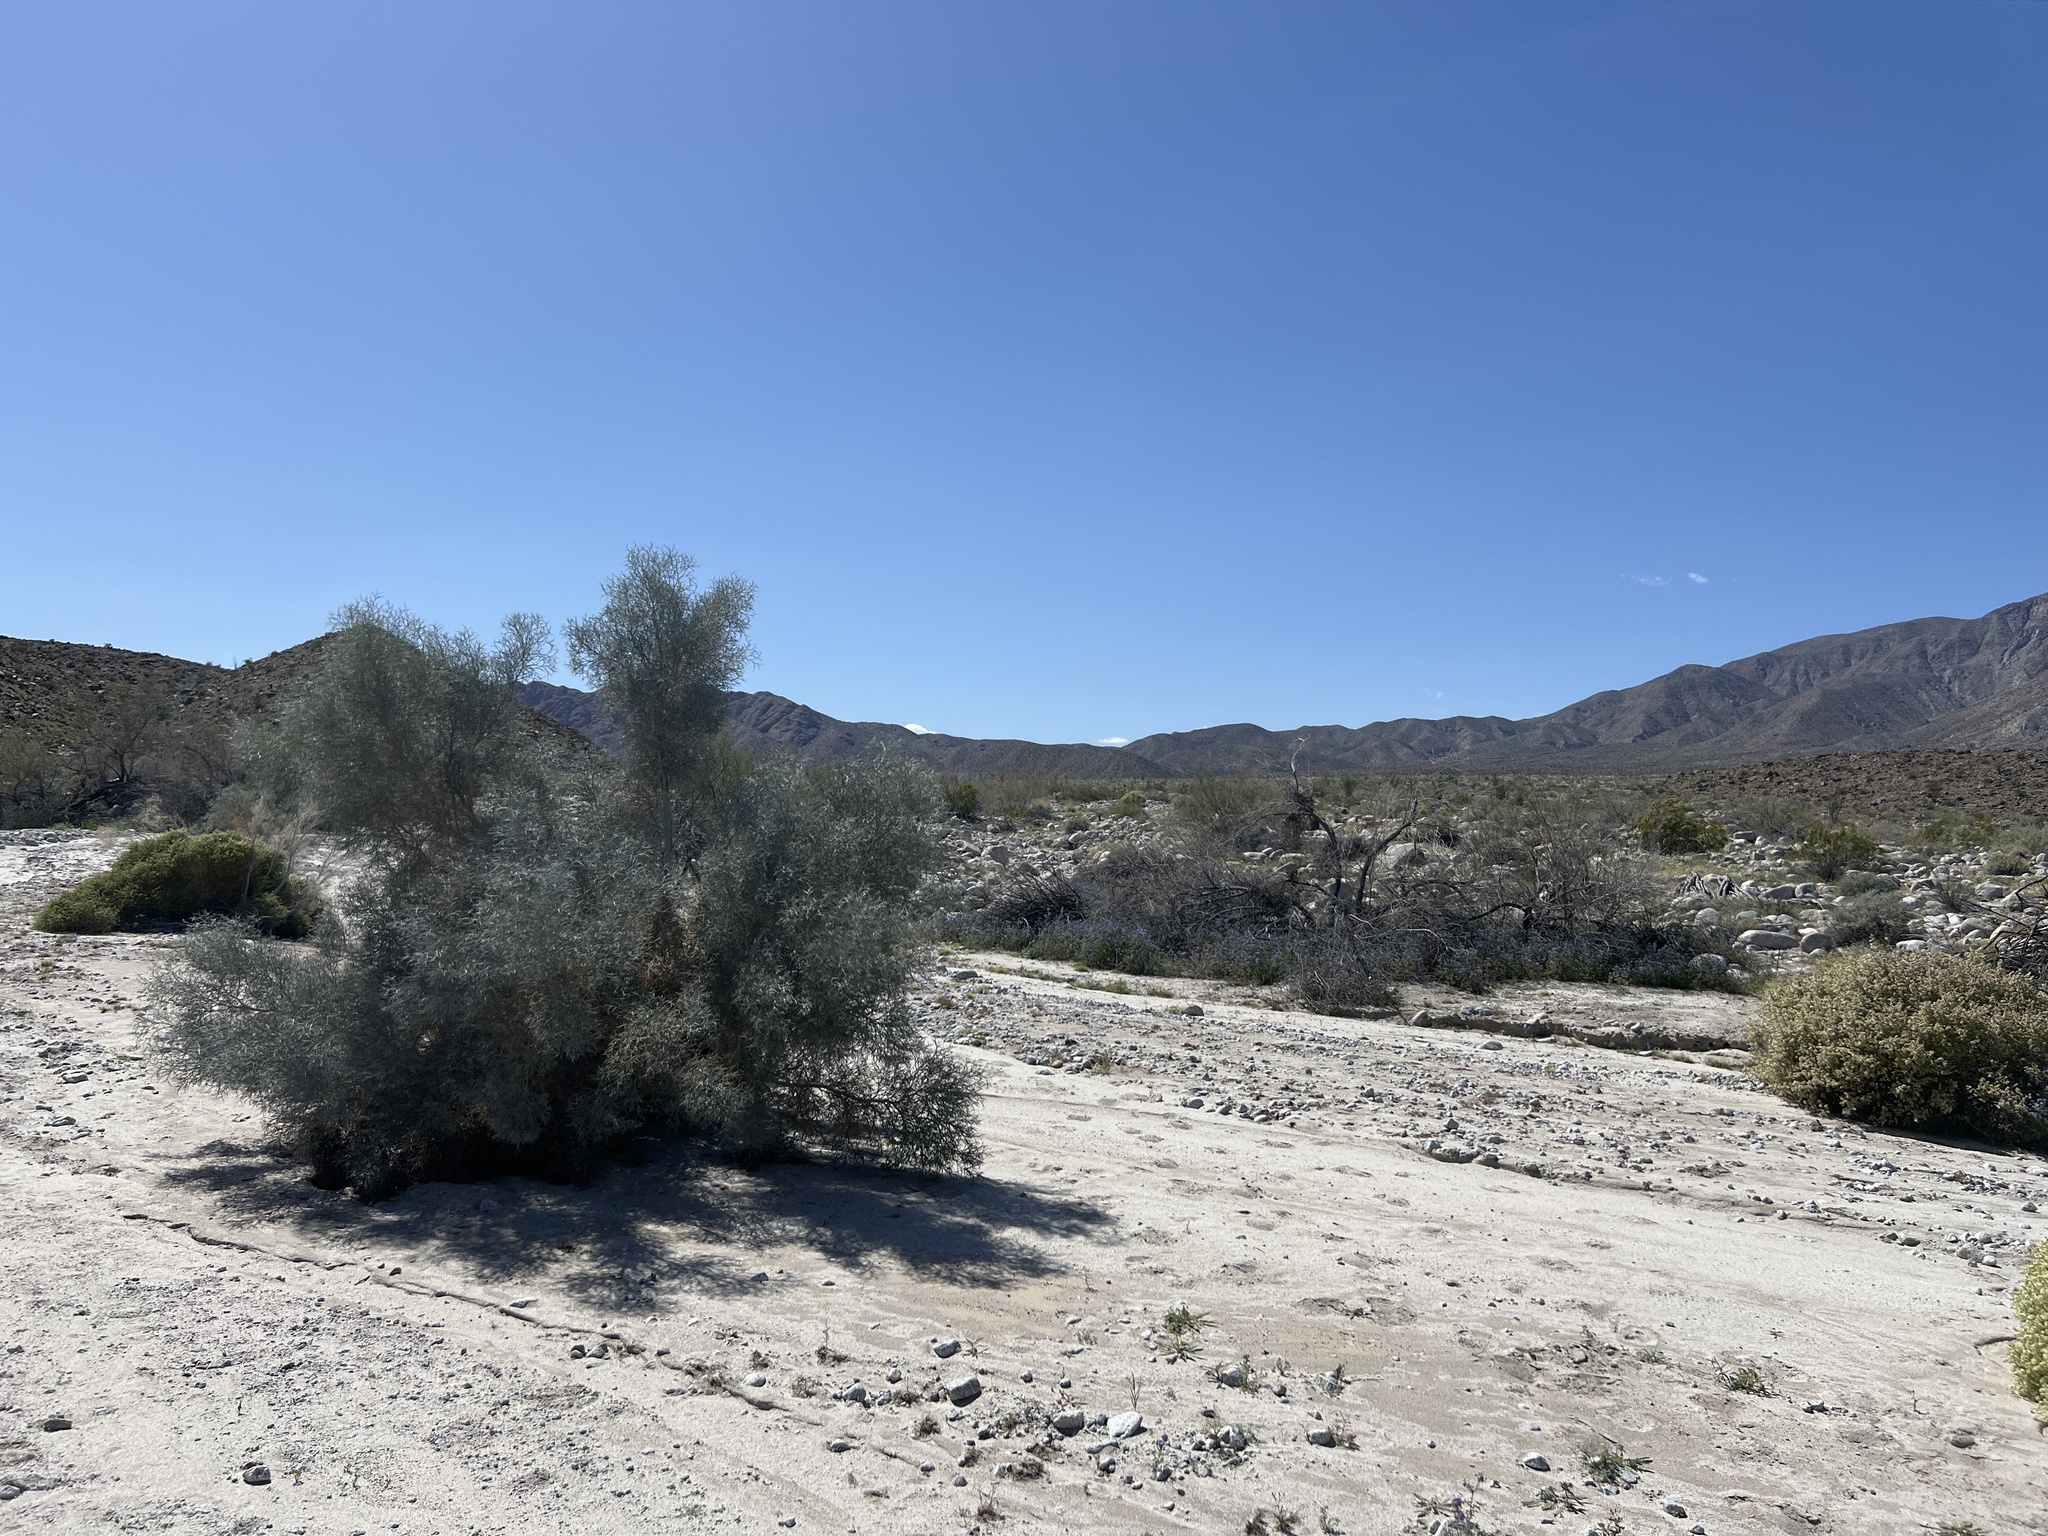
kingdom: Plantae
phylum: Tracheophyta
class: Magnoliopsida
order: Fabales
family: Fabaceae
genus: Psorothamnus
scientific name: Psorothamnus spinosus
